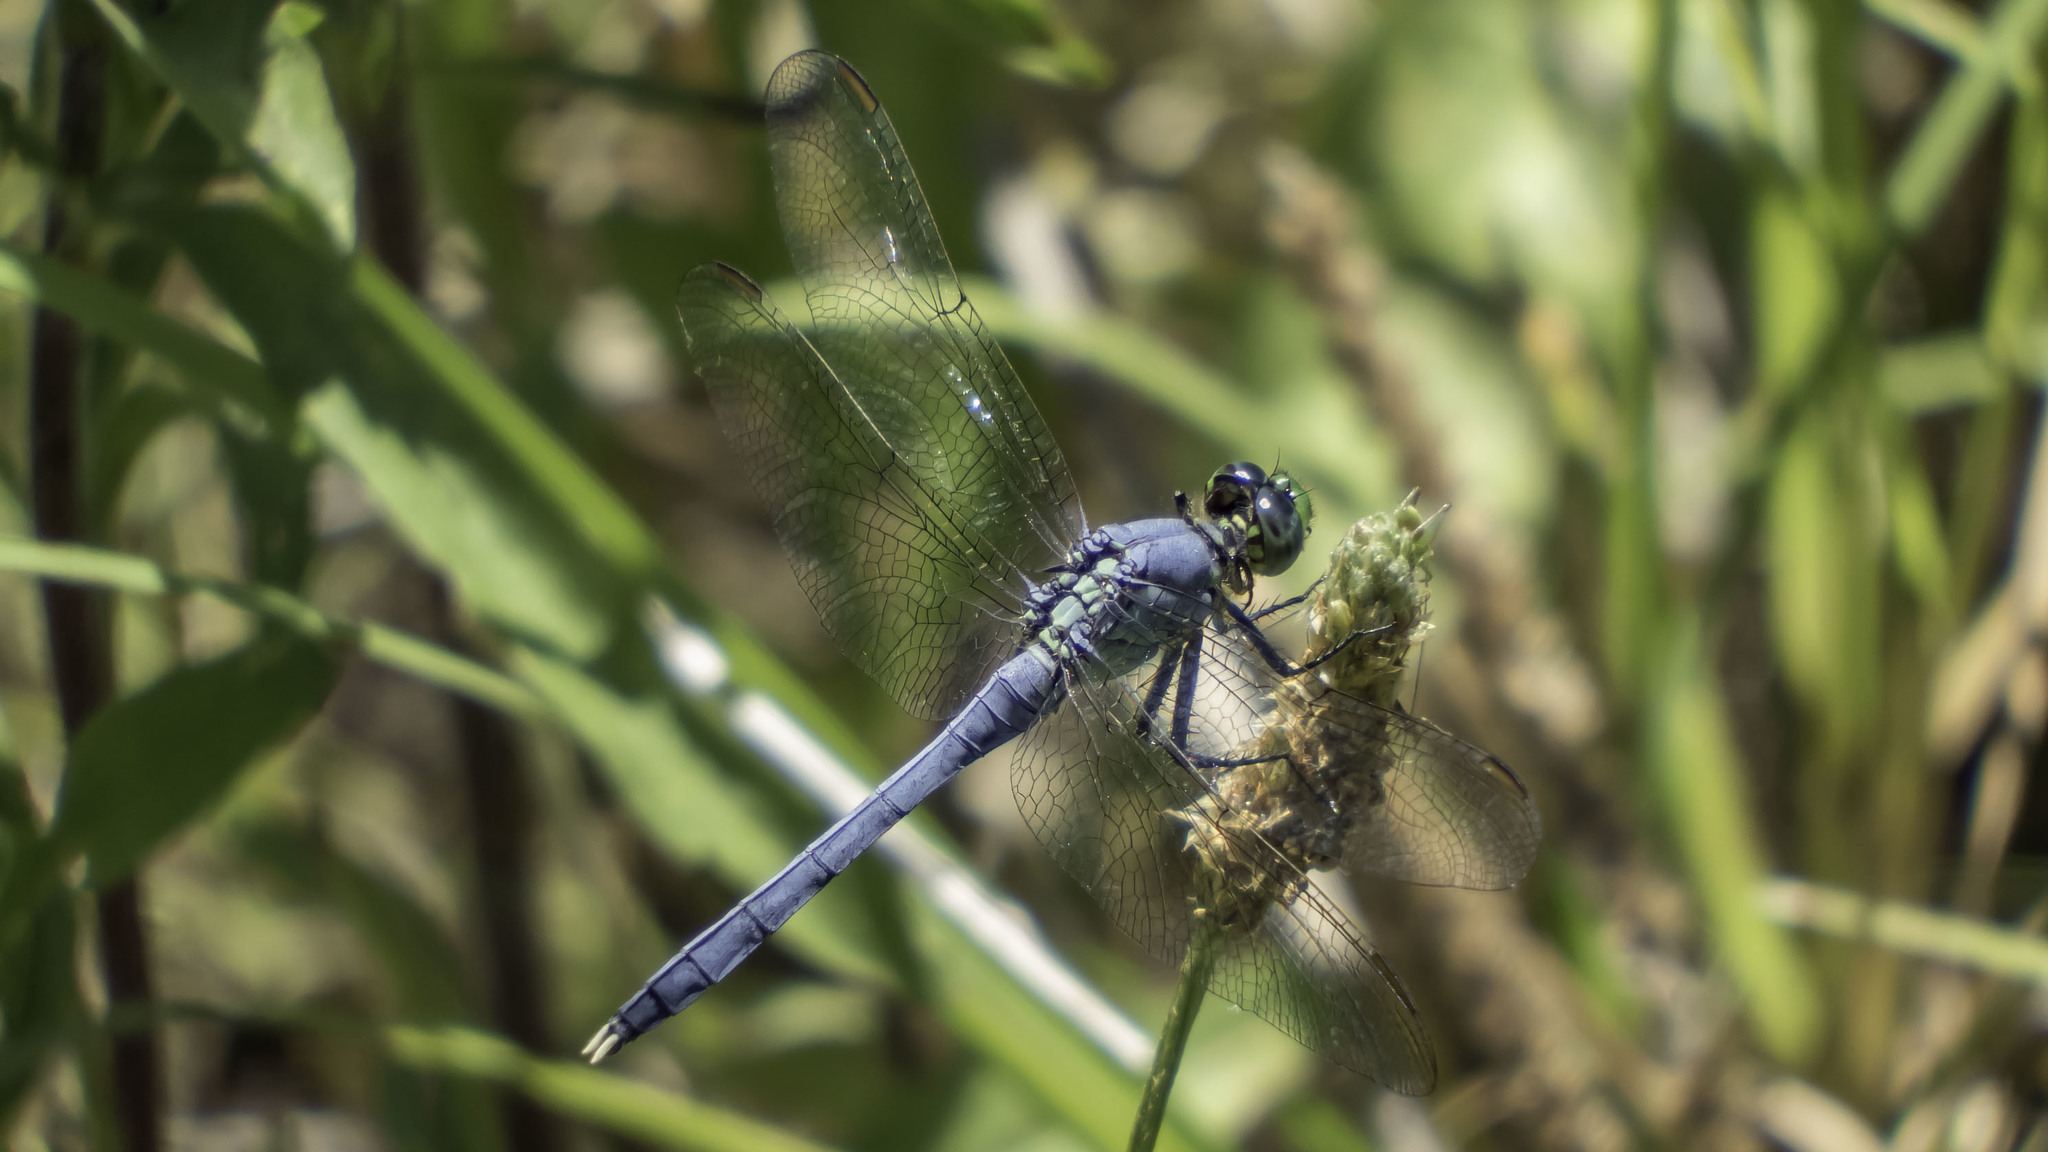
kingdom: Animalia
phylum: Arthropoda
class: Insecta
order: Odonata
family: Libellulidae
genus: Erythemis
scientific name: Erythemis simplicicollis
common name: Eastern pondhawk
